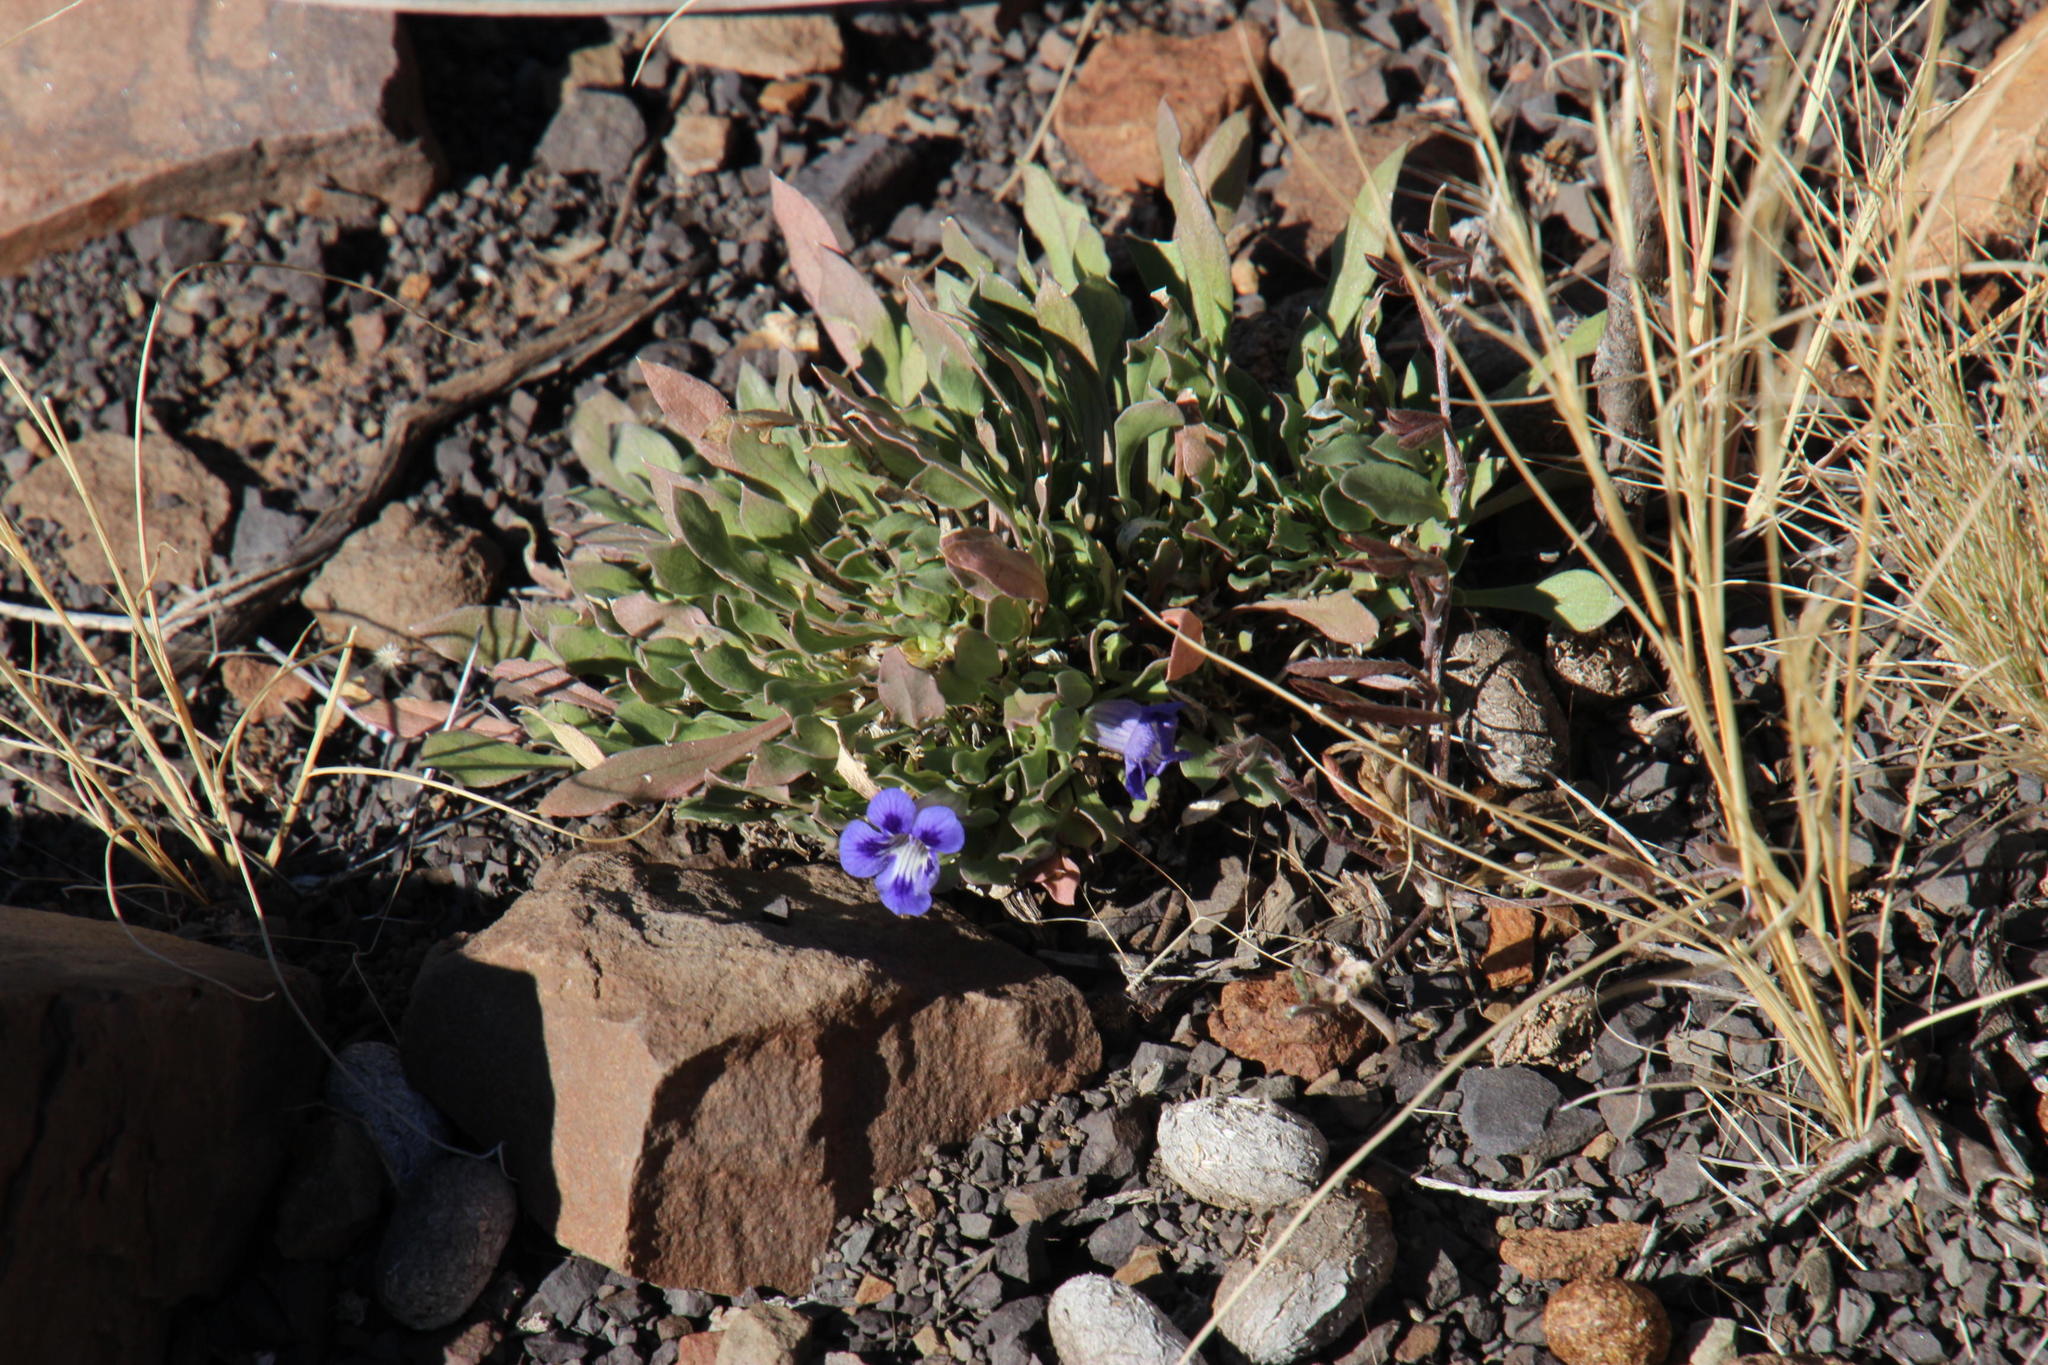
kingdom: Plantae
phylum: Tracheophyta
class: Magnoliopsida
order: Lamiales
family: Scrophulariaceae
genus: Aptosimum
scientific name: Aptosimum indivisum
